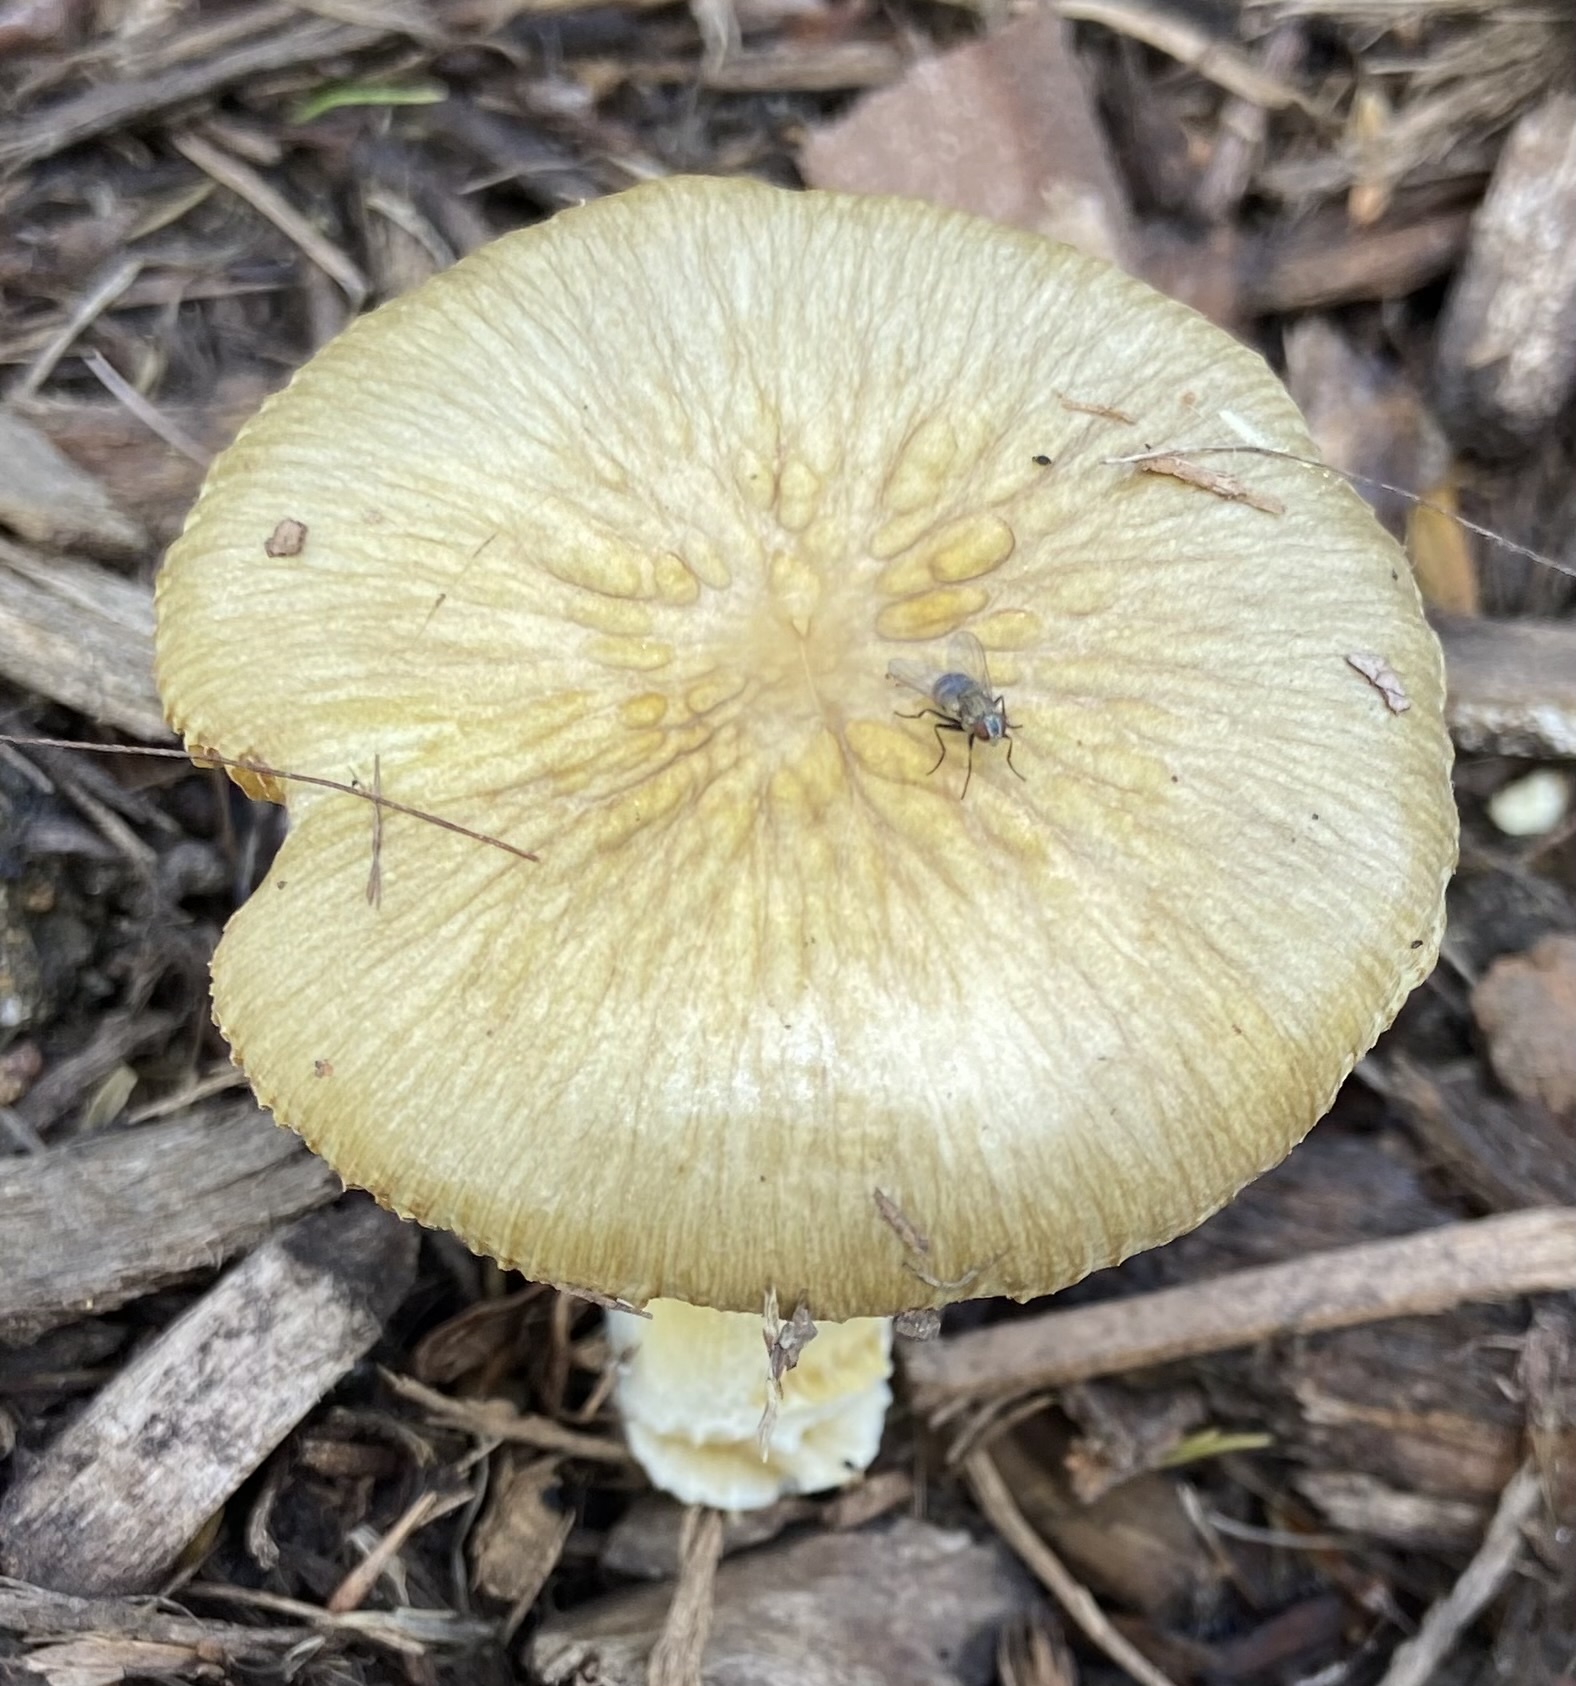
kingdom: Fungi
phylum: Basidiomycota
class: Agaricomycetes
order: Agaricales
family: Bolbitiaceae
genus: Bolbitius
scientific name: Bolbitius titubans
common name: Yellow fieldcap
